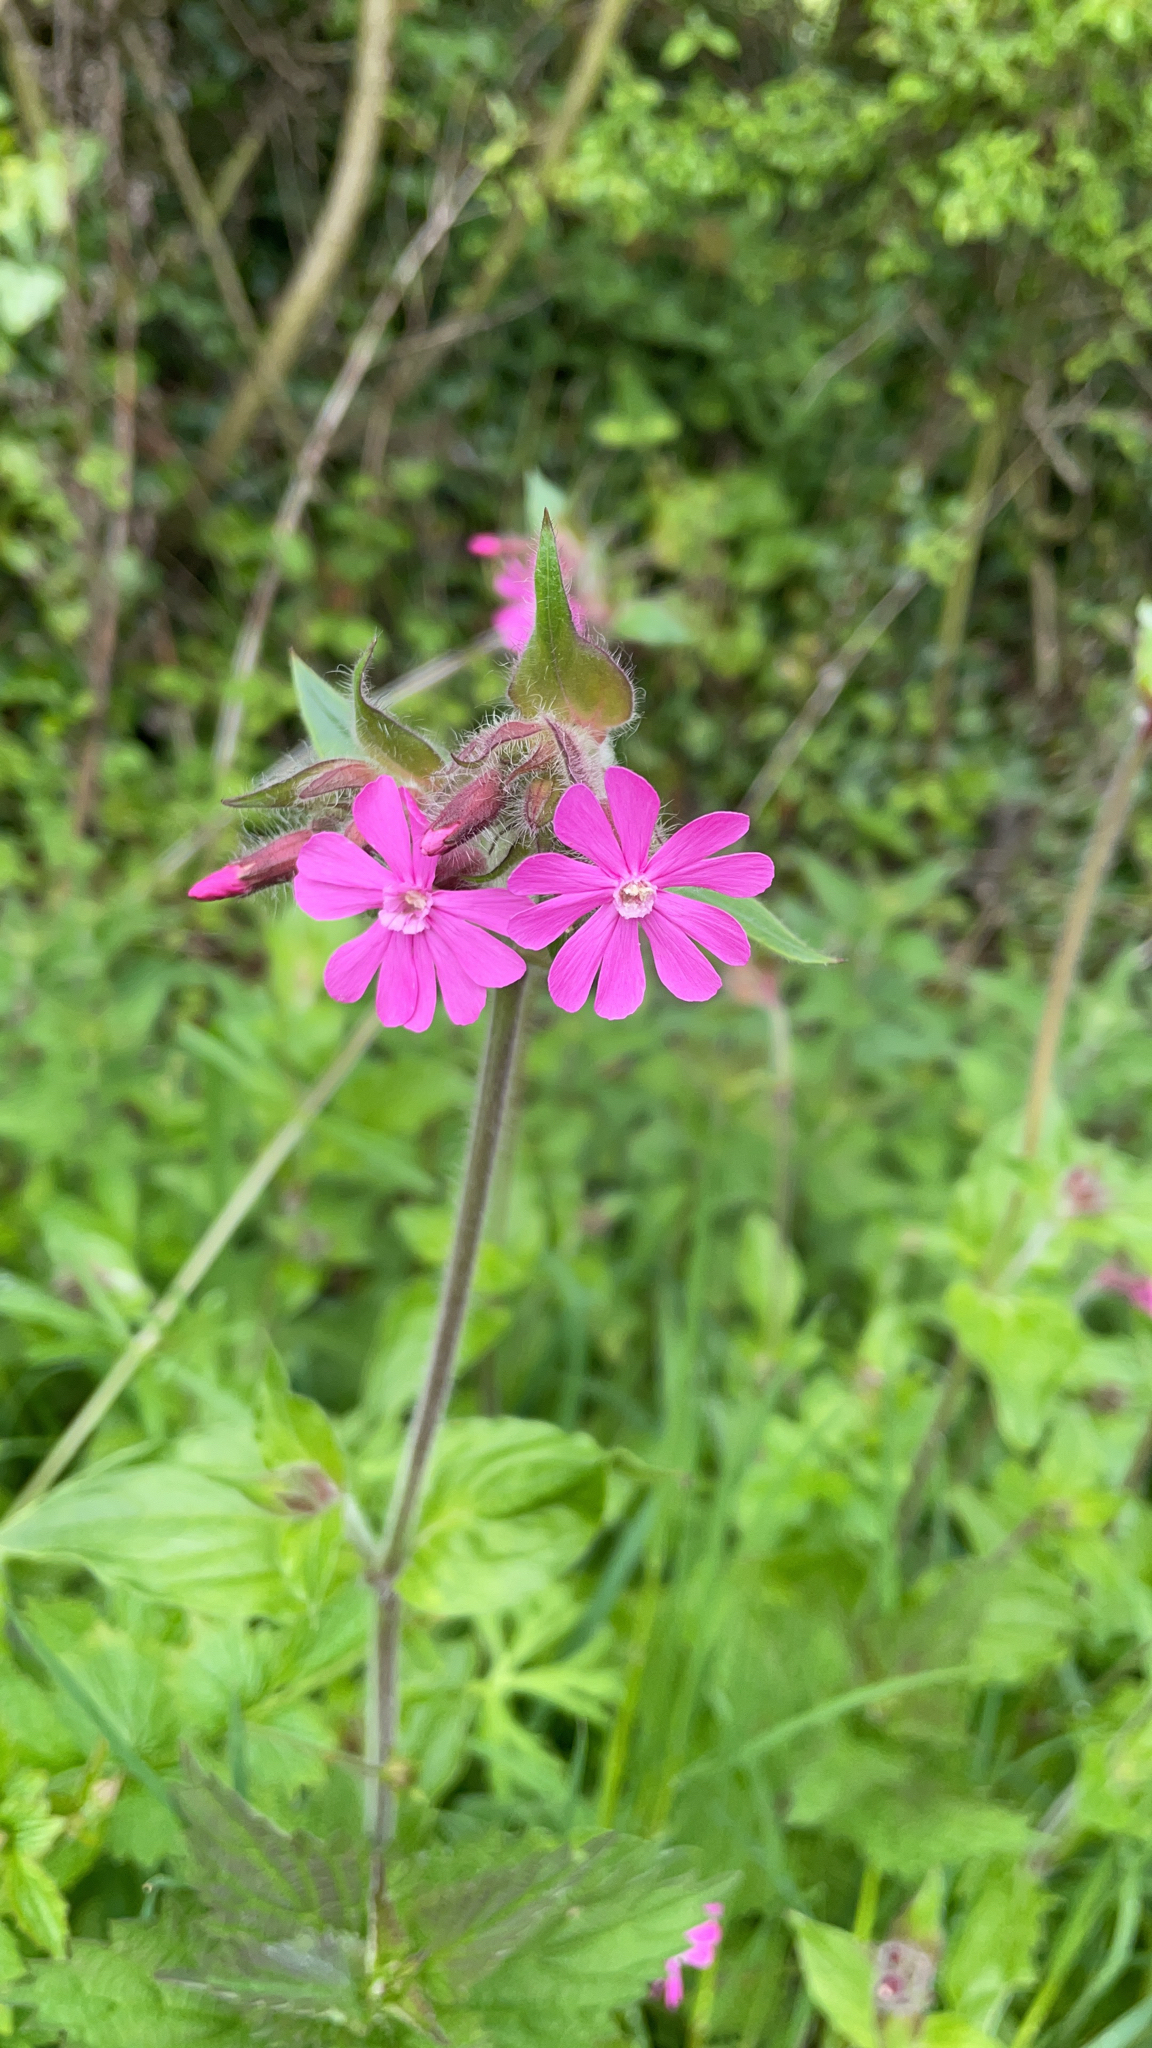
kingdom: Plantae
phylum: Tracheophyta
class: Magnoliopsida
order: Caryophyllales
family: Caryophyllaceae
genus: Silene
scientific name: Silene dioica
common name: Red campion
